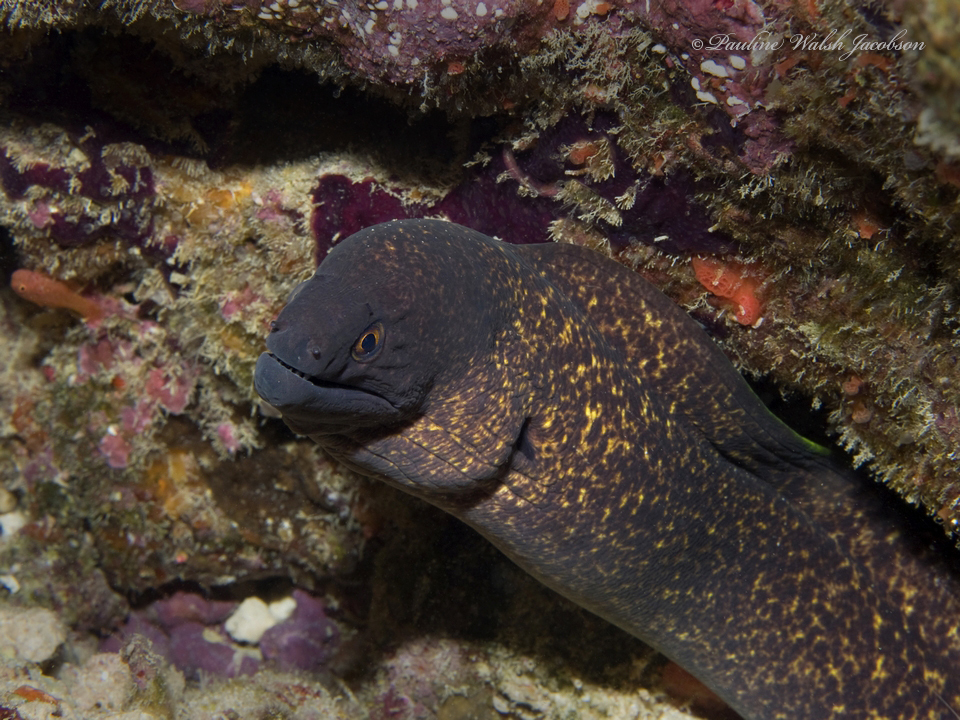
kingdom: Animalia
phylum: Chordata
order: Anguilliformes
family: Muraenidae
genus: Gymnothorax
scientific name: Gymnothorax flavimarginatus
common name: Yellow-edged moray
